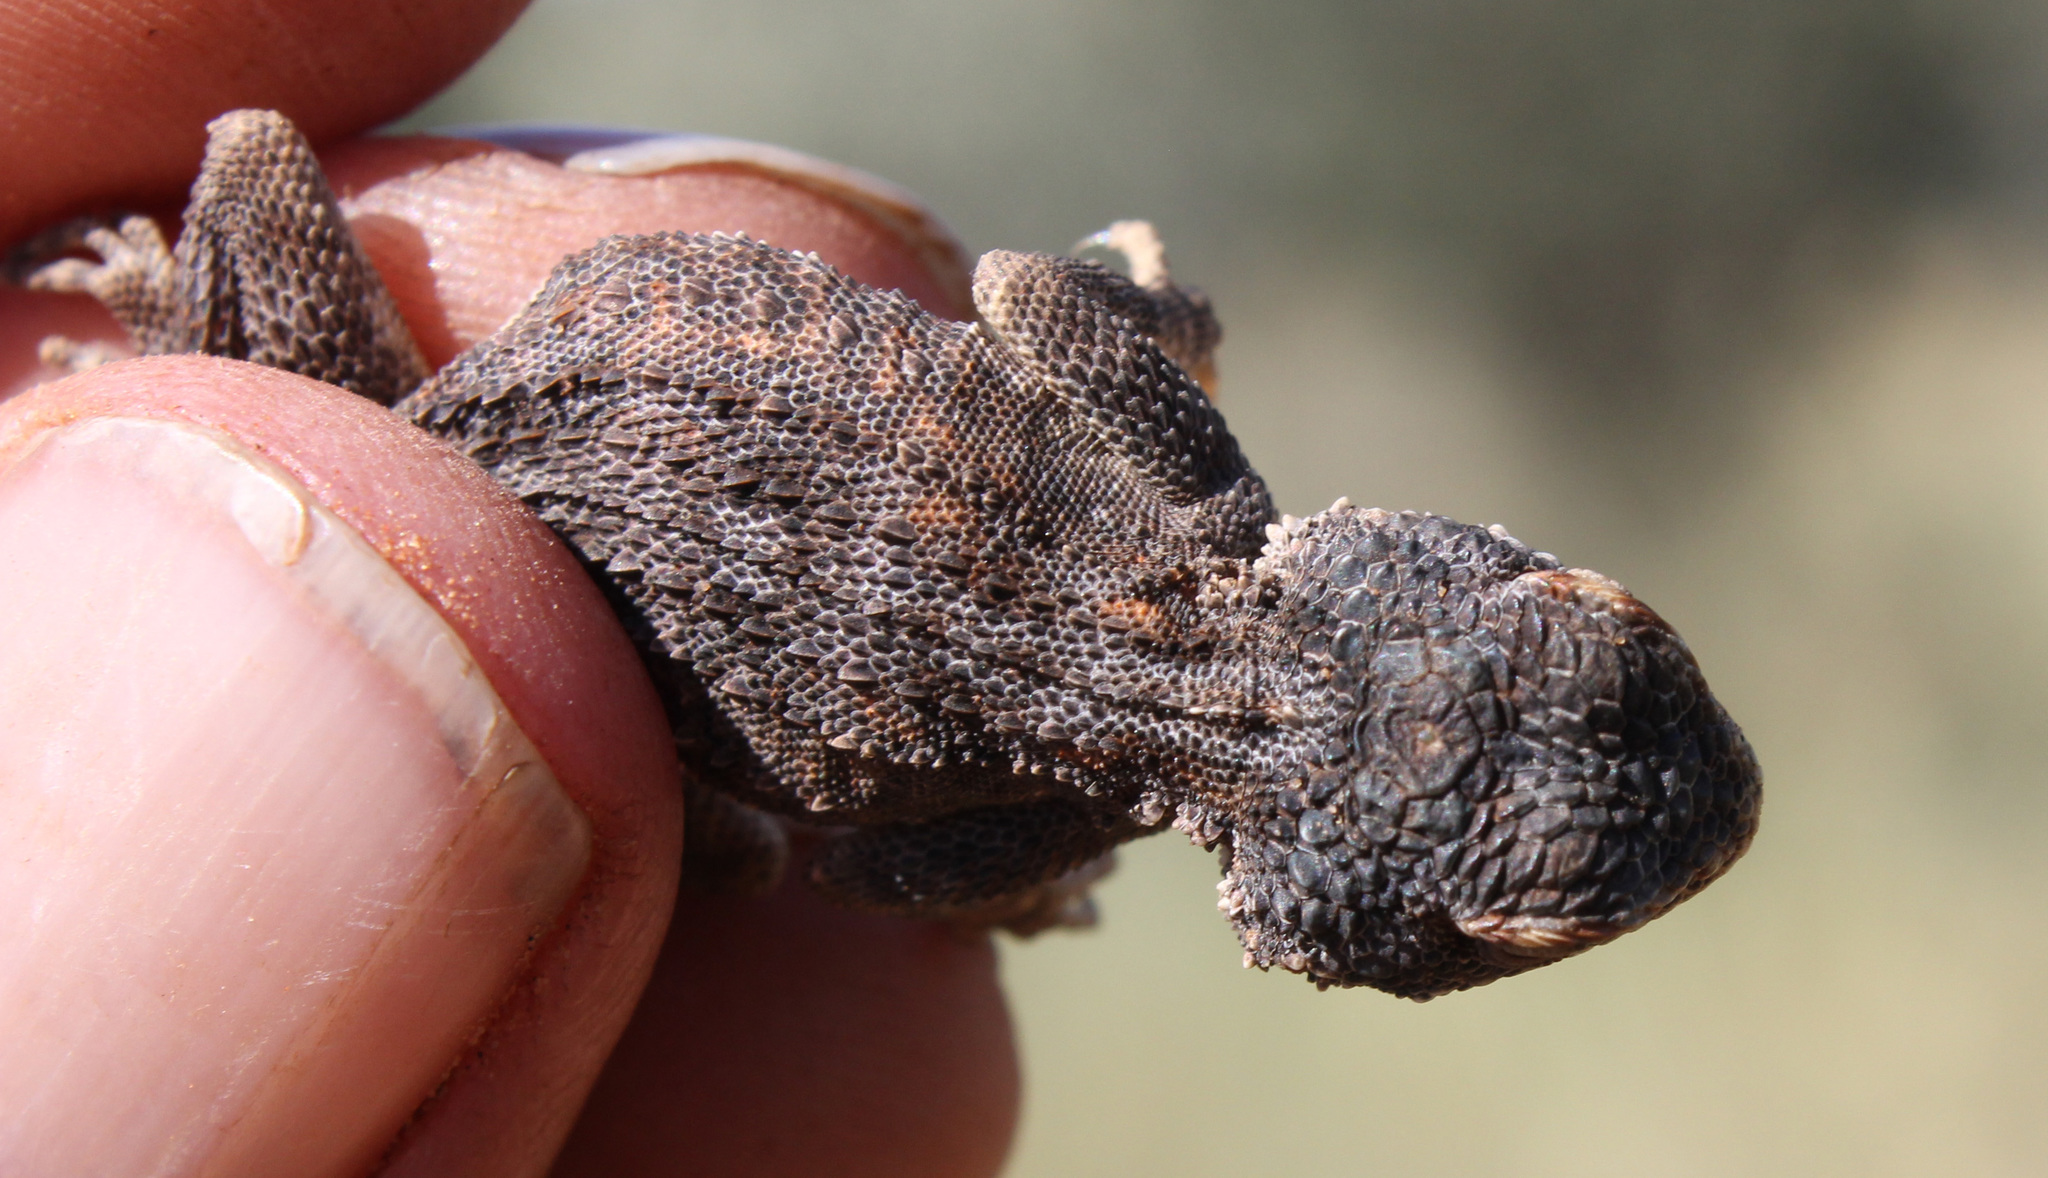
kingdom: Animalia
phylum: Chordata
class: Squamata
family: Agamidae
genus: Agama
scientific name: Agama aculeata
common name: Common ground agama
